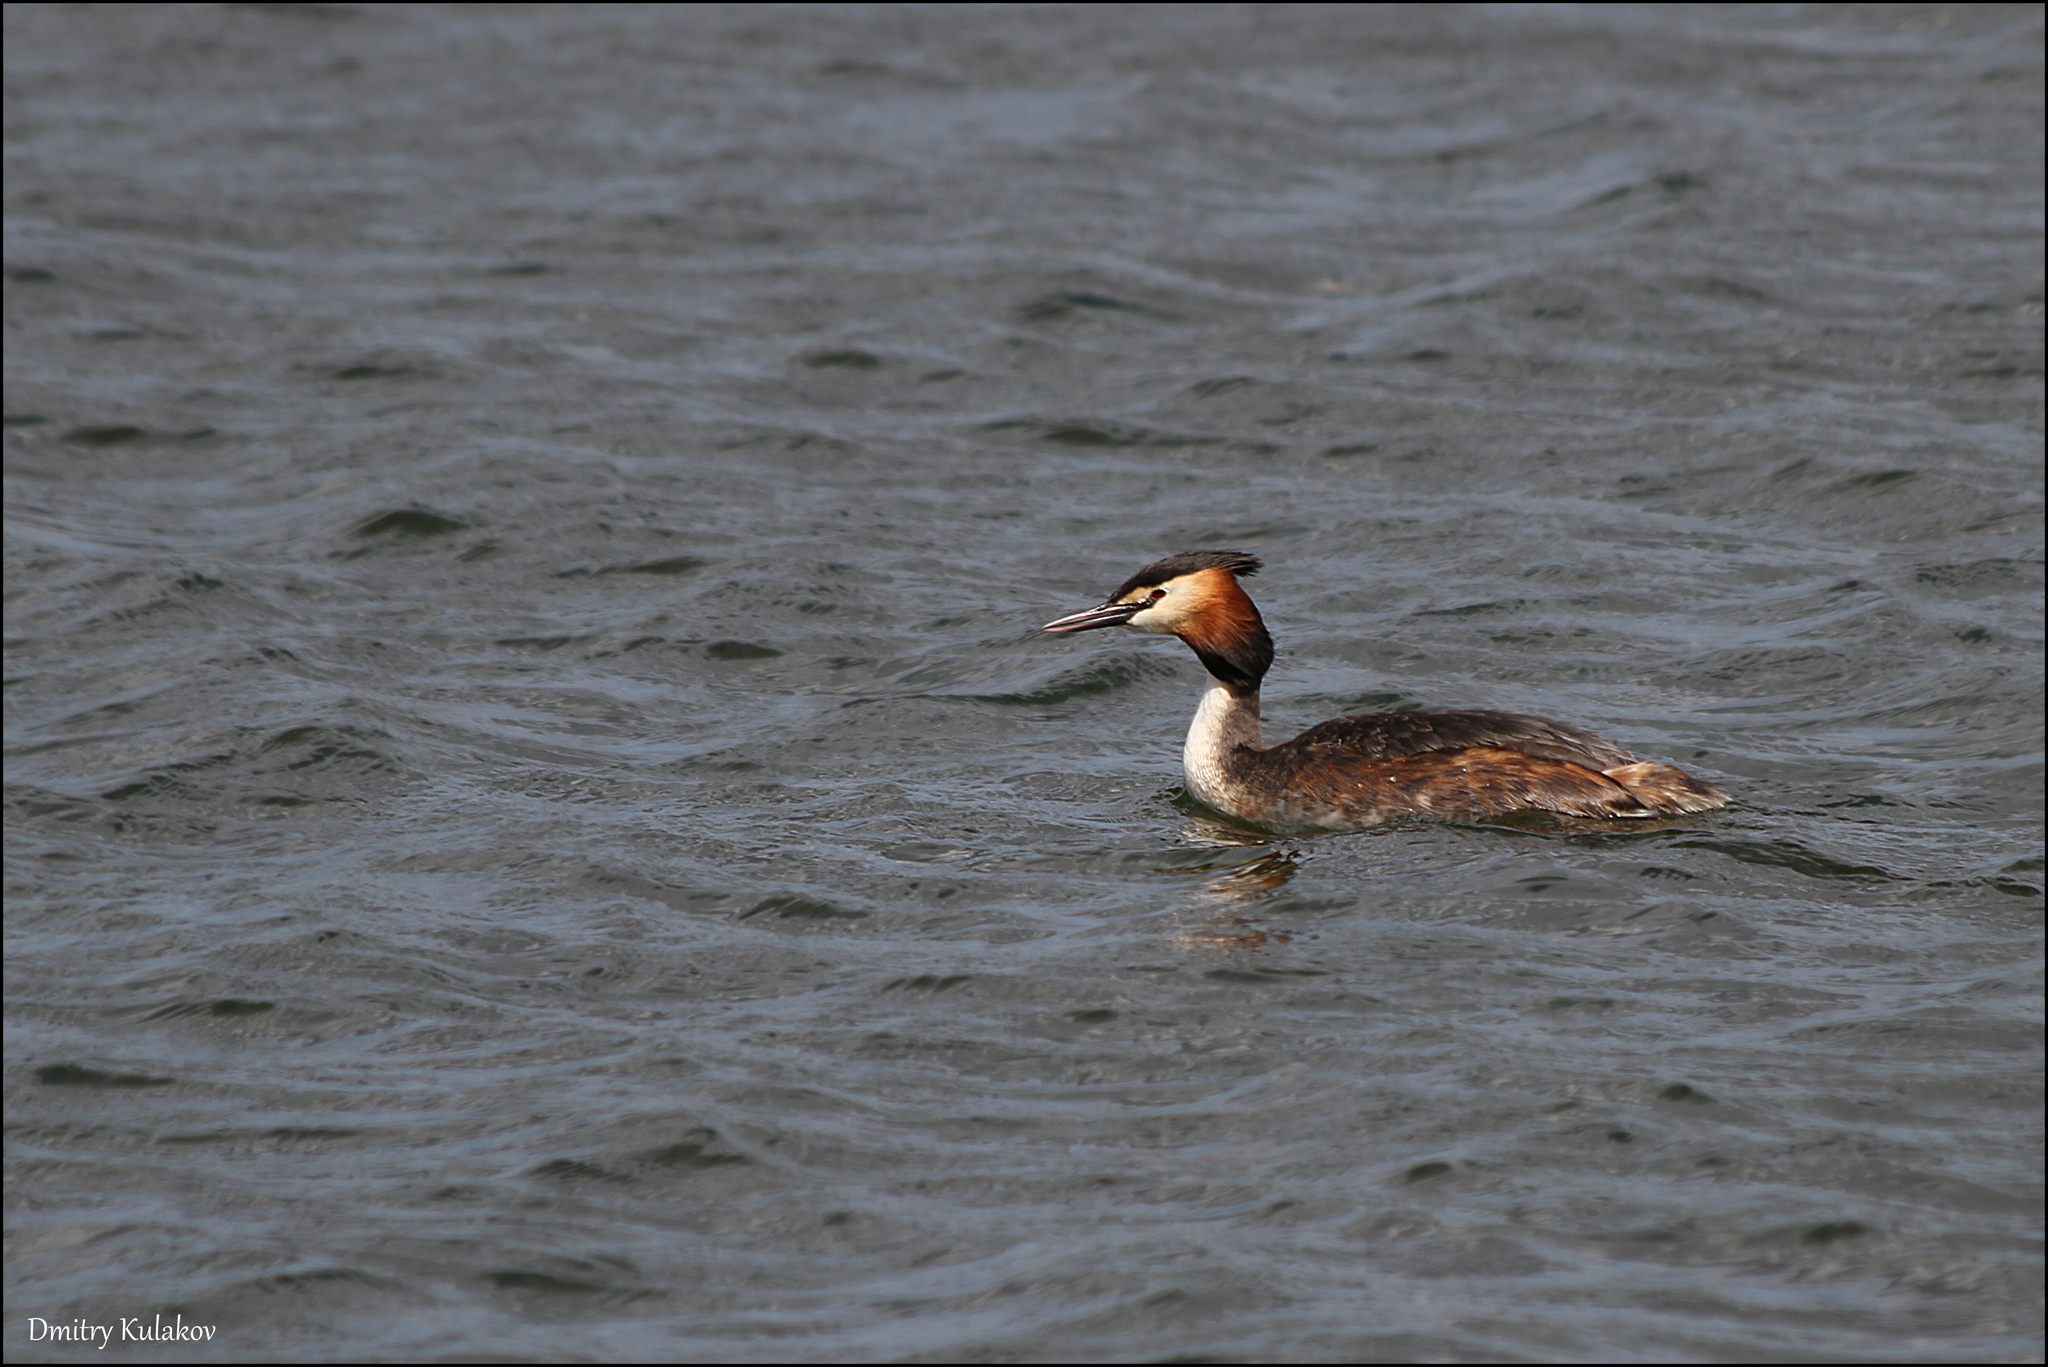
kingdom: Animalia
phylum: Chordata
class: Aves
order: Podicipediformes
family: Podicipedidae
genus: Podiceps
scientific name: Podiceps cristatus
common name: Great crested grebe
